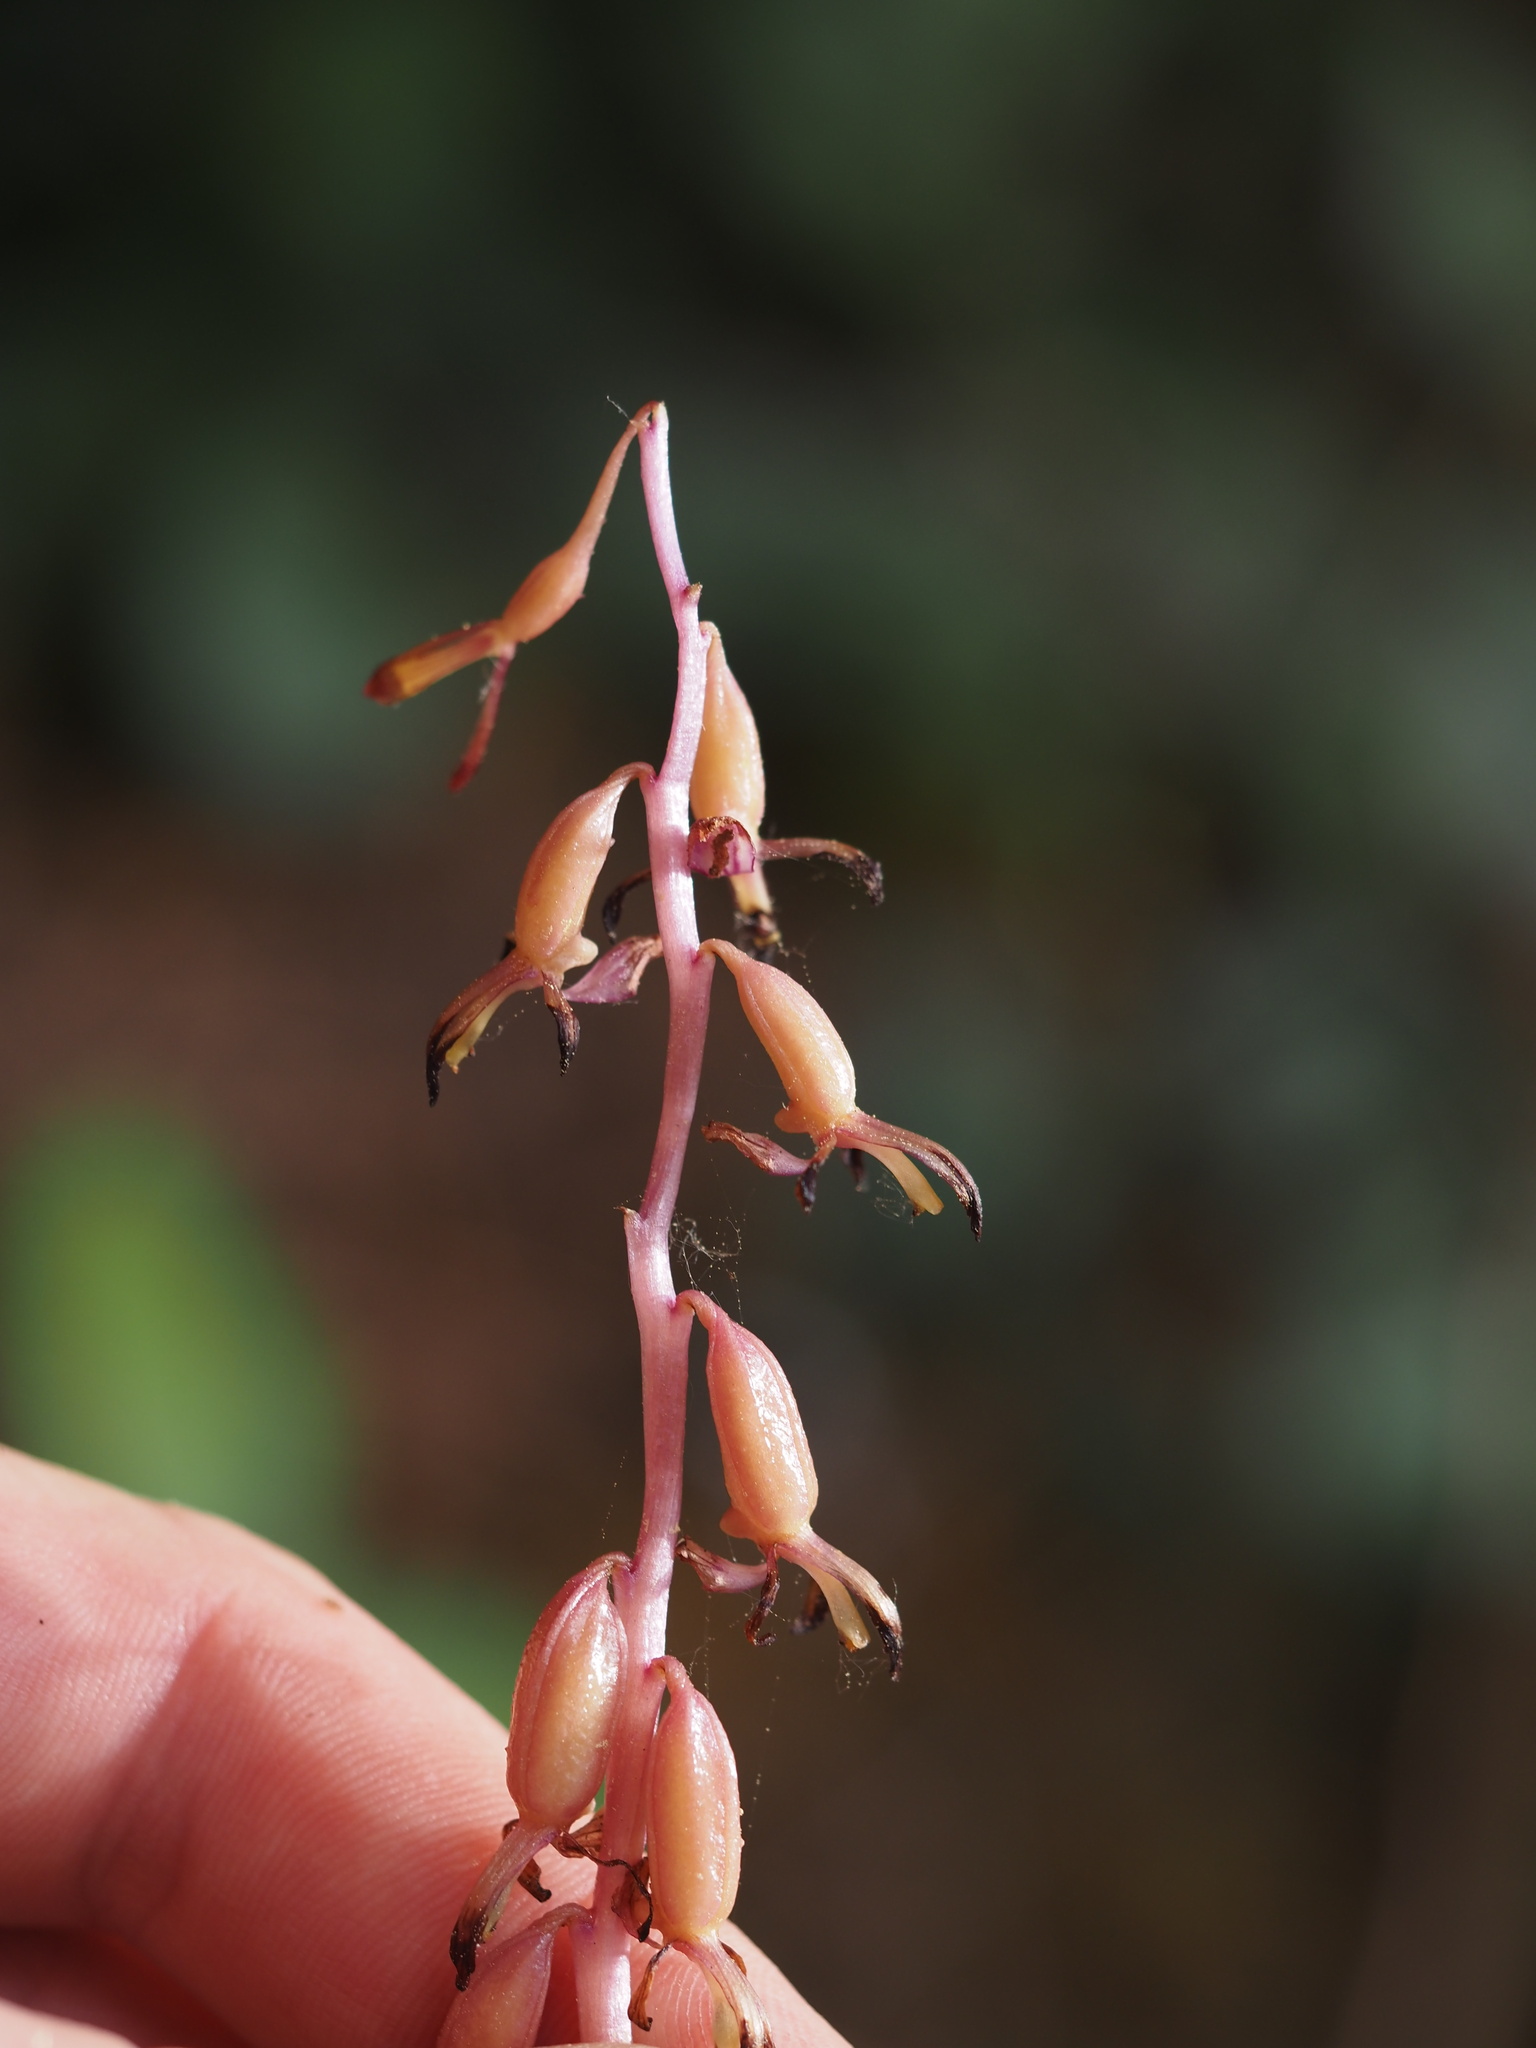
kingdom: Plantae
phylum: Tracheophyta
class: Liliopsida
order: Asparagales
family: Orchidaceae
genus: Corallorhiza
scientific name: Corallorhiza mertensiana
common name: Pacific coralroot
